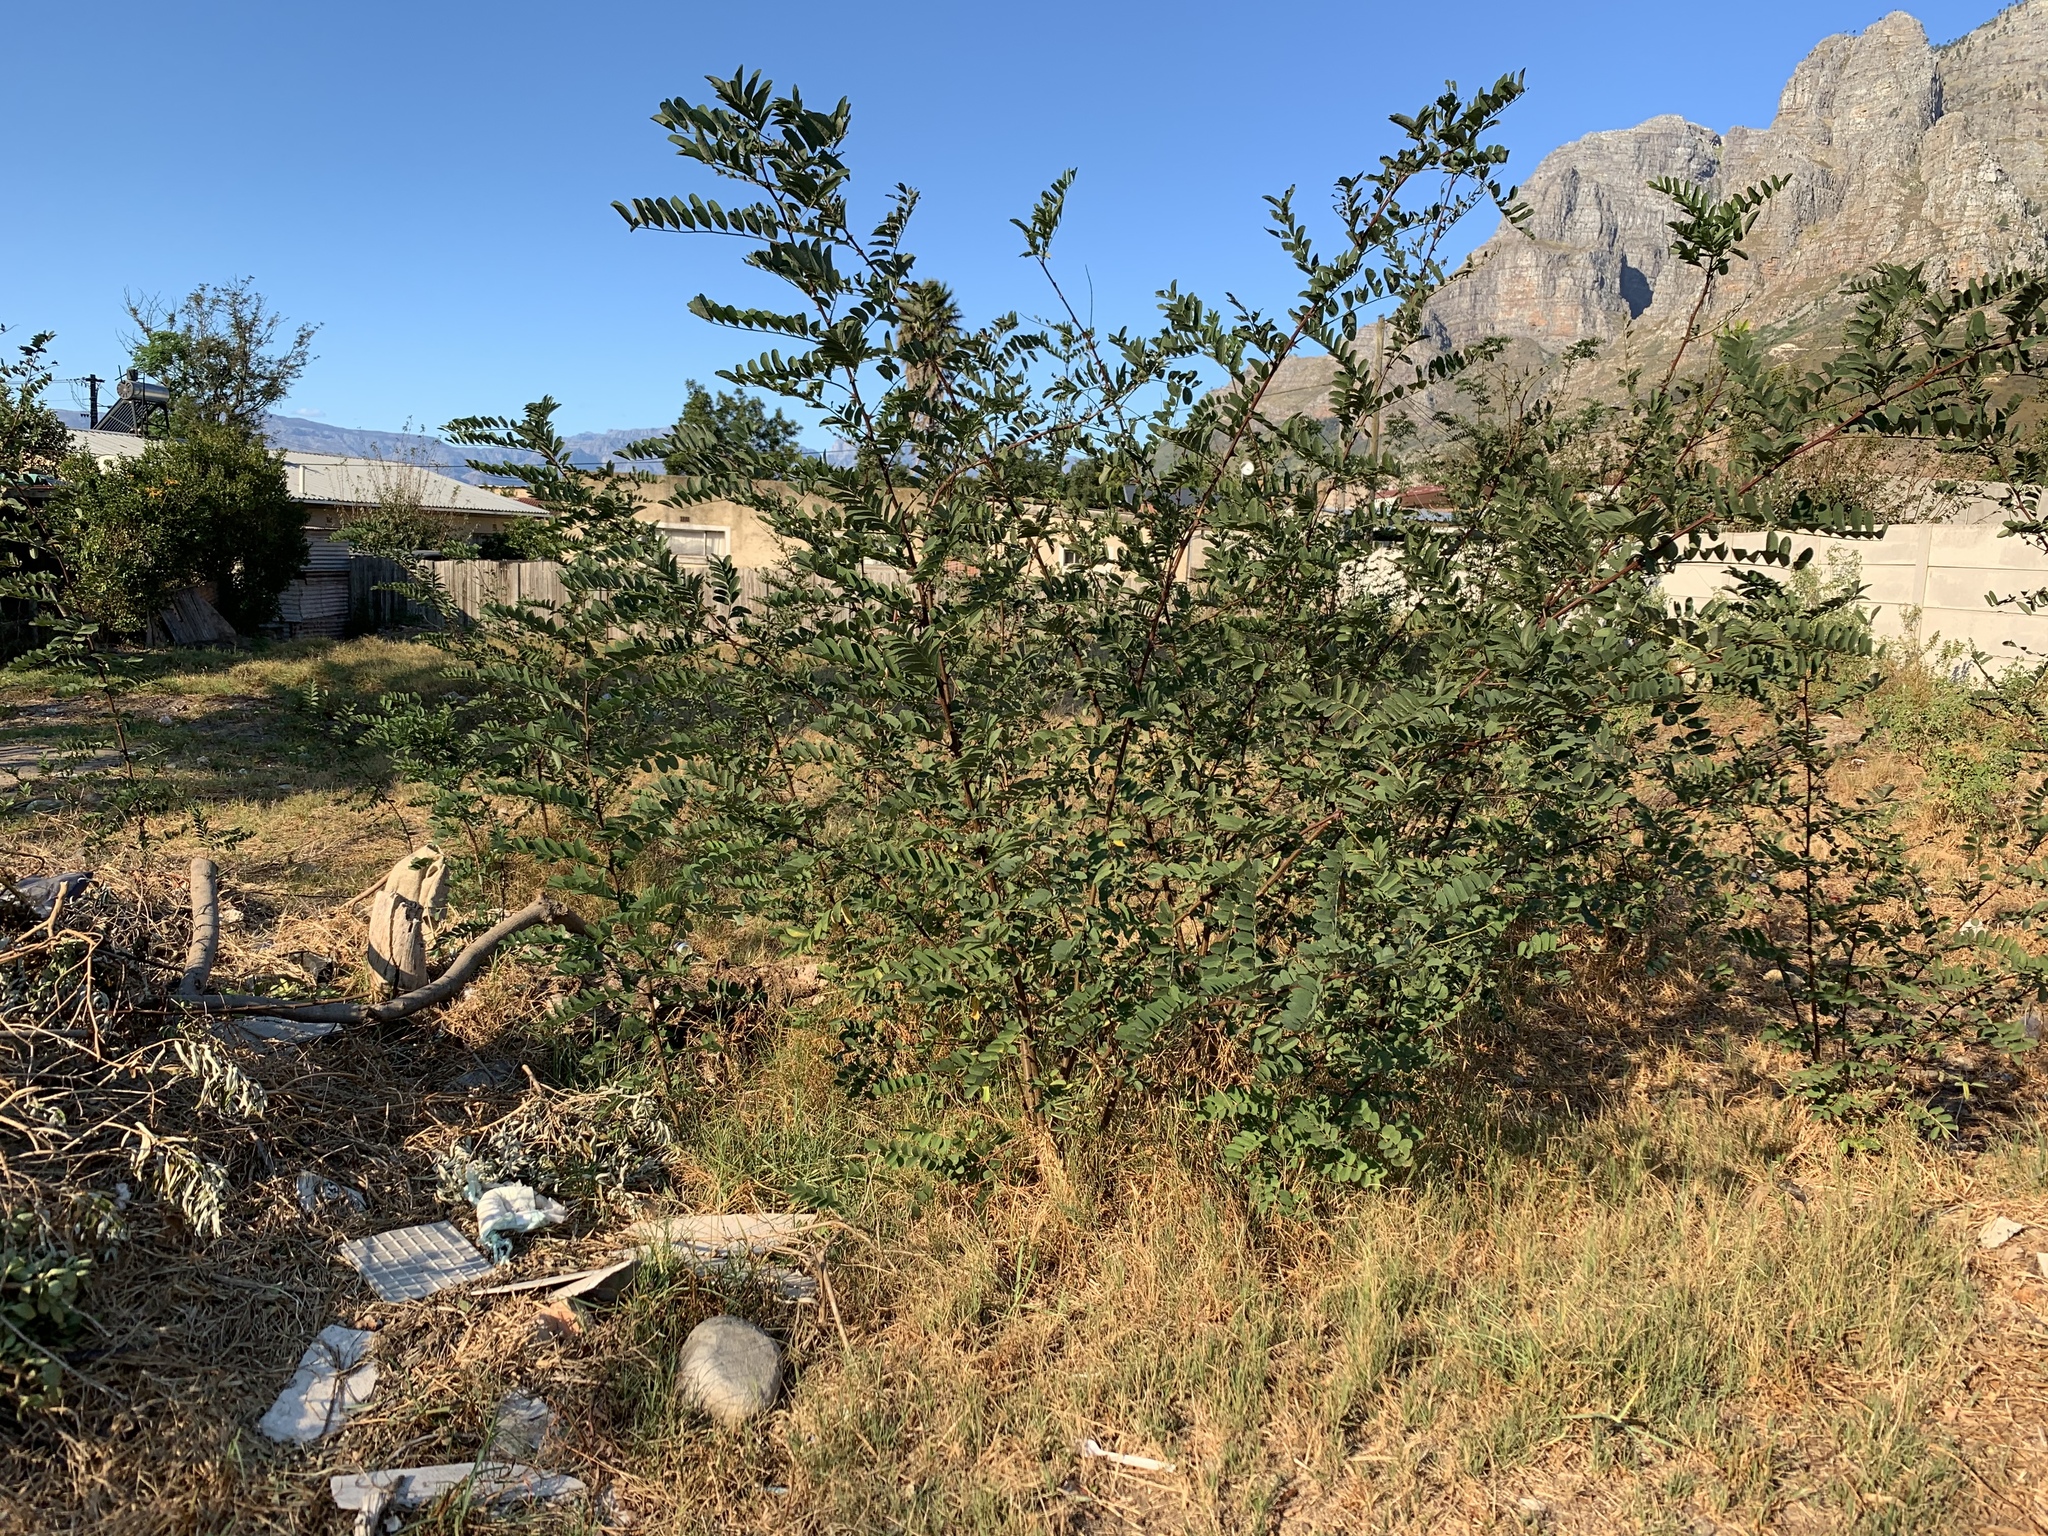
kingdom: Plantae
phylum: Tracheophyta
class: Magnoliopsida
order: Fabales
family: Fabaceae
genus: Robinia
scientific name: Robinia pseudoacacia
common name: Black locust
